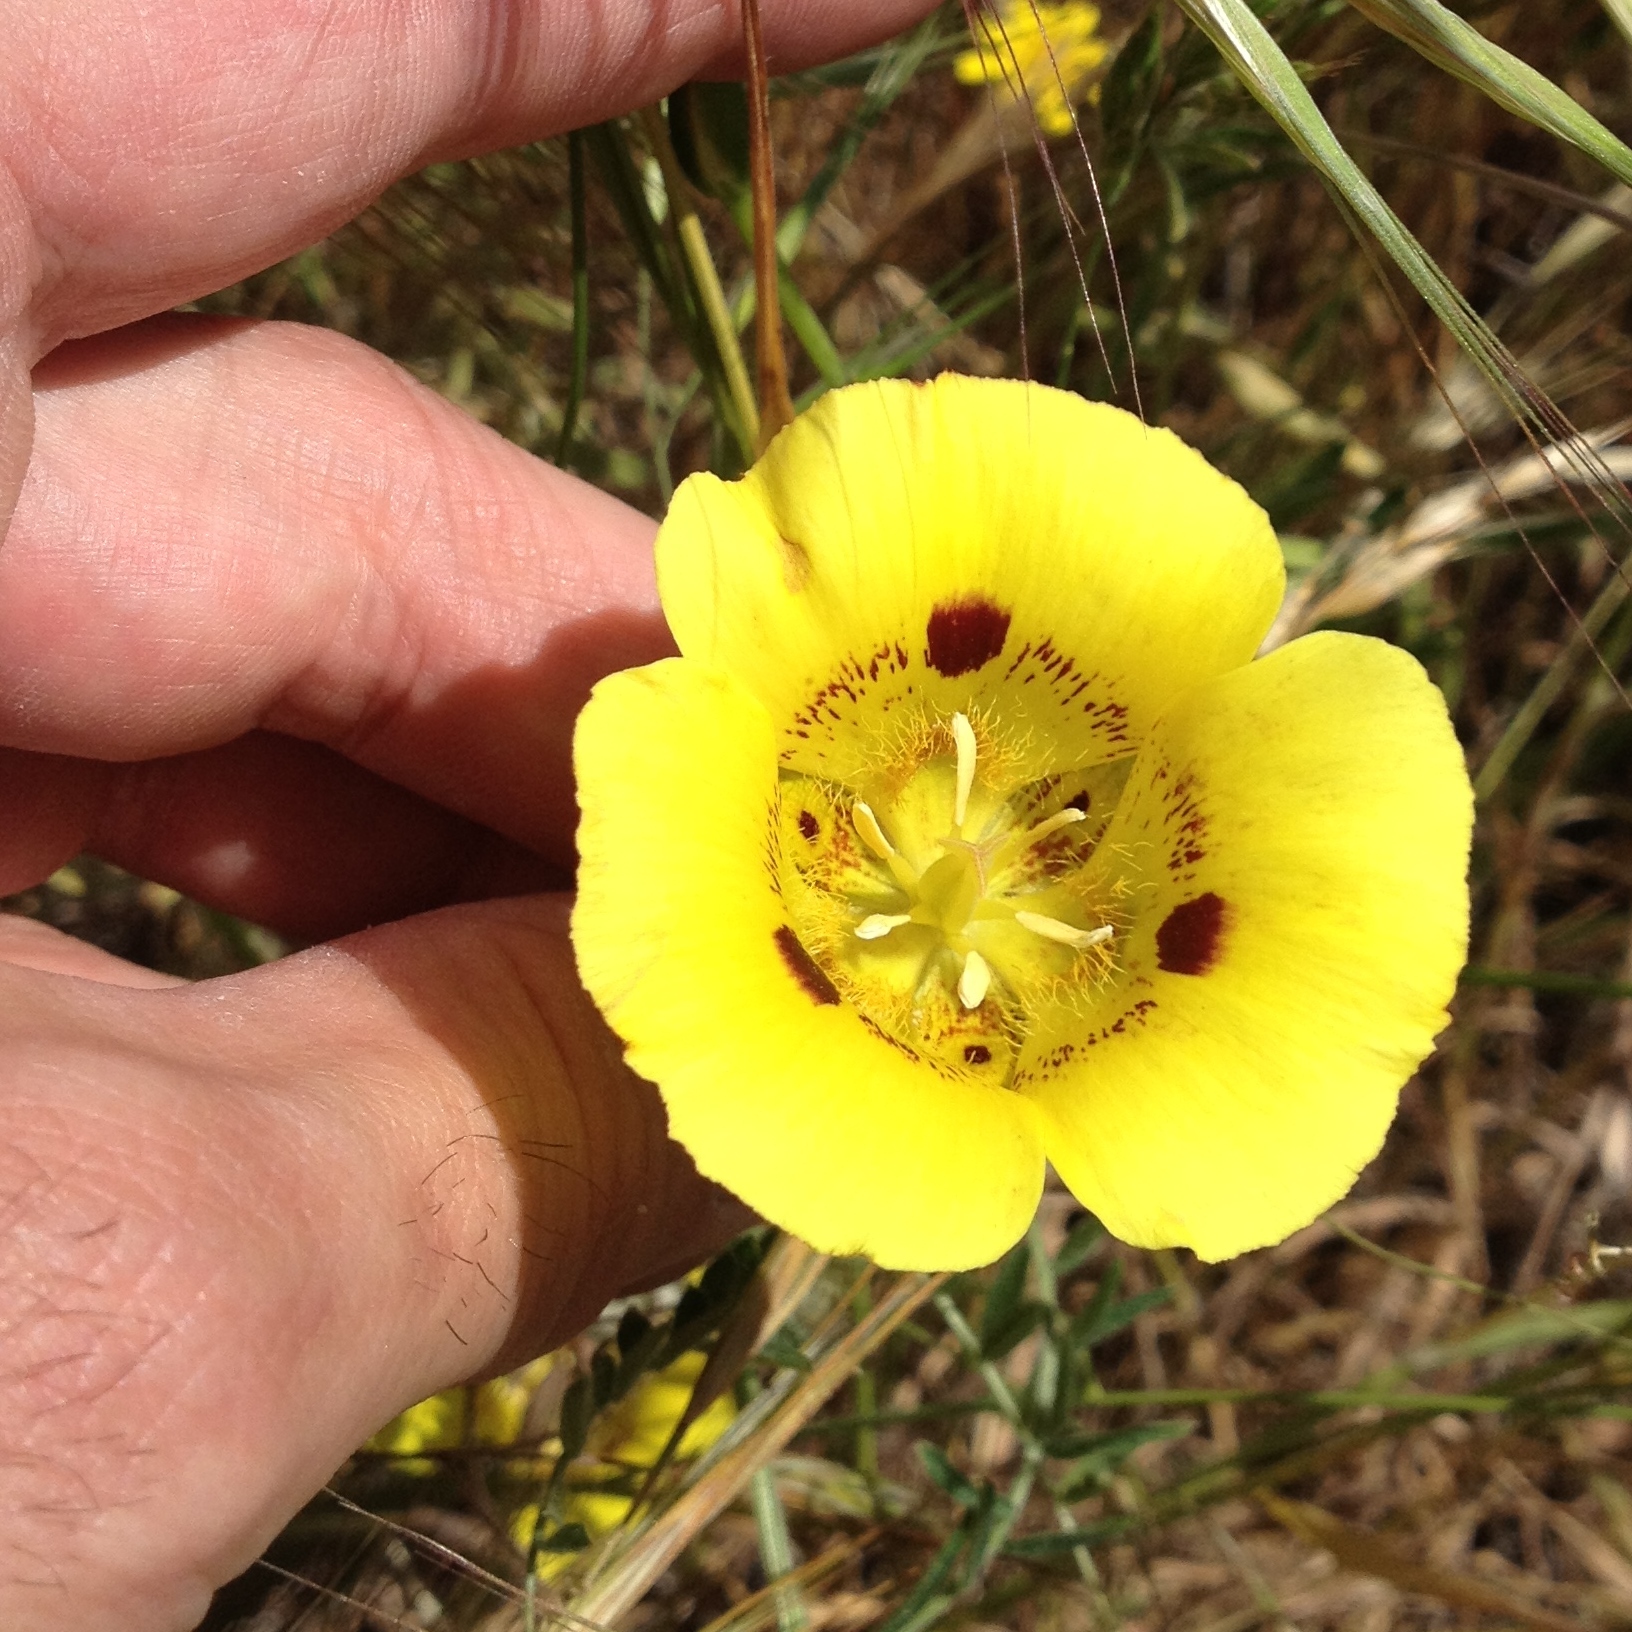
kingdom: Plantae
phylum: Tracheophyta
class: Liliopsida
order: Liliales
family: Liliaceae
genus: Calochortus
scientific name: Calochortus luteus
